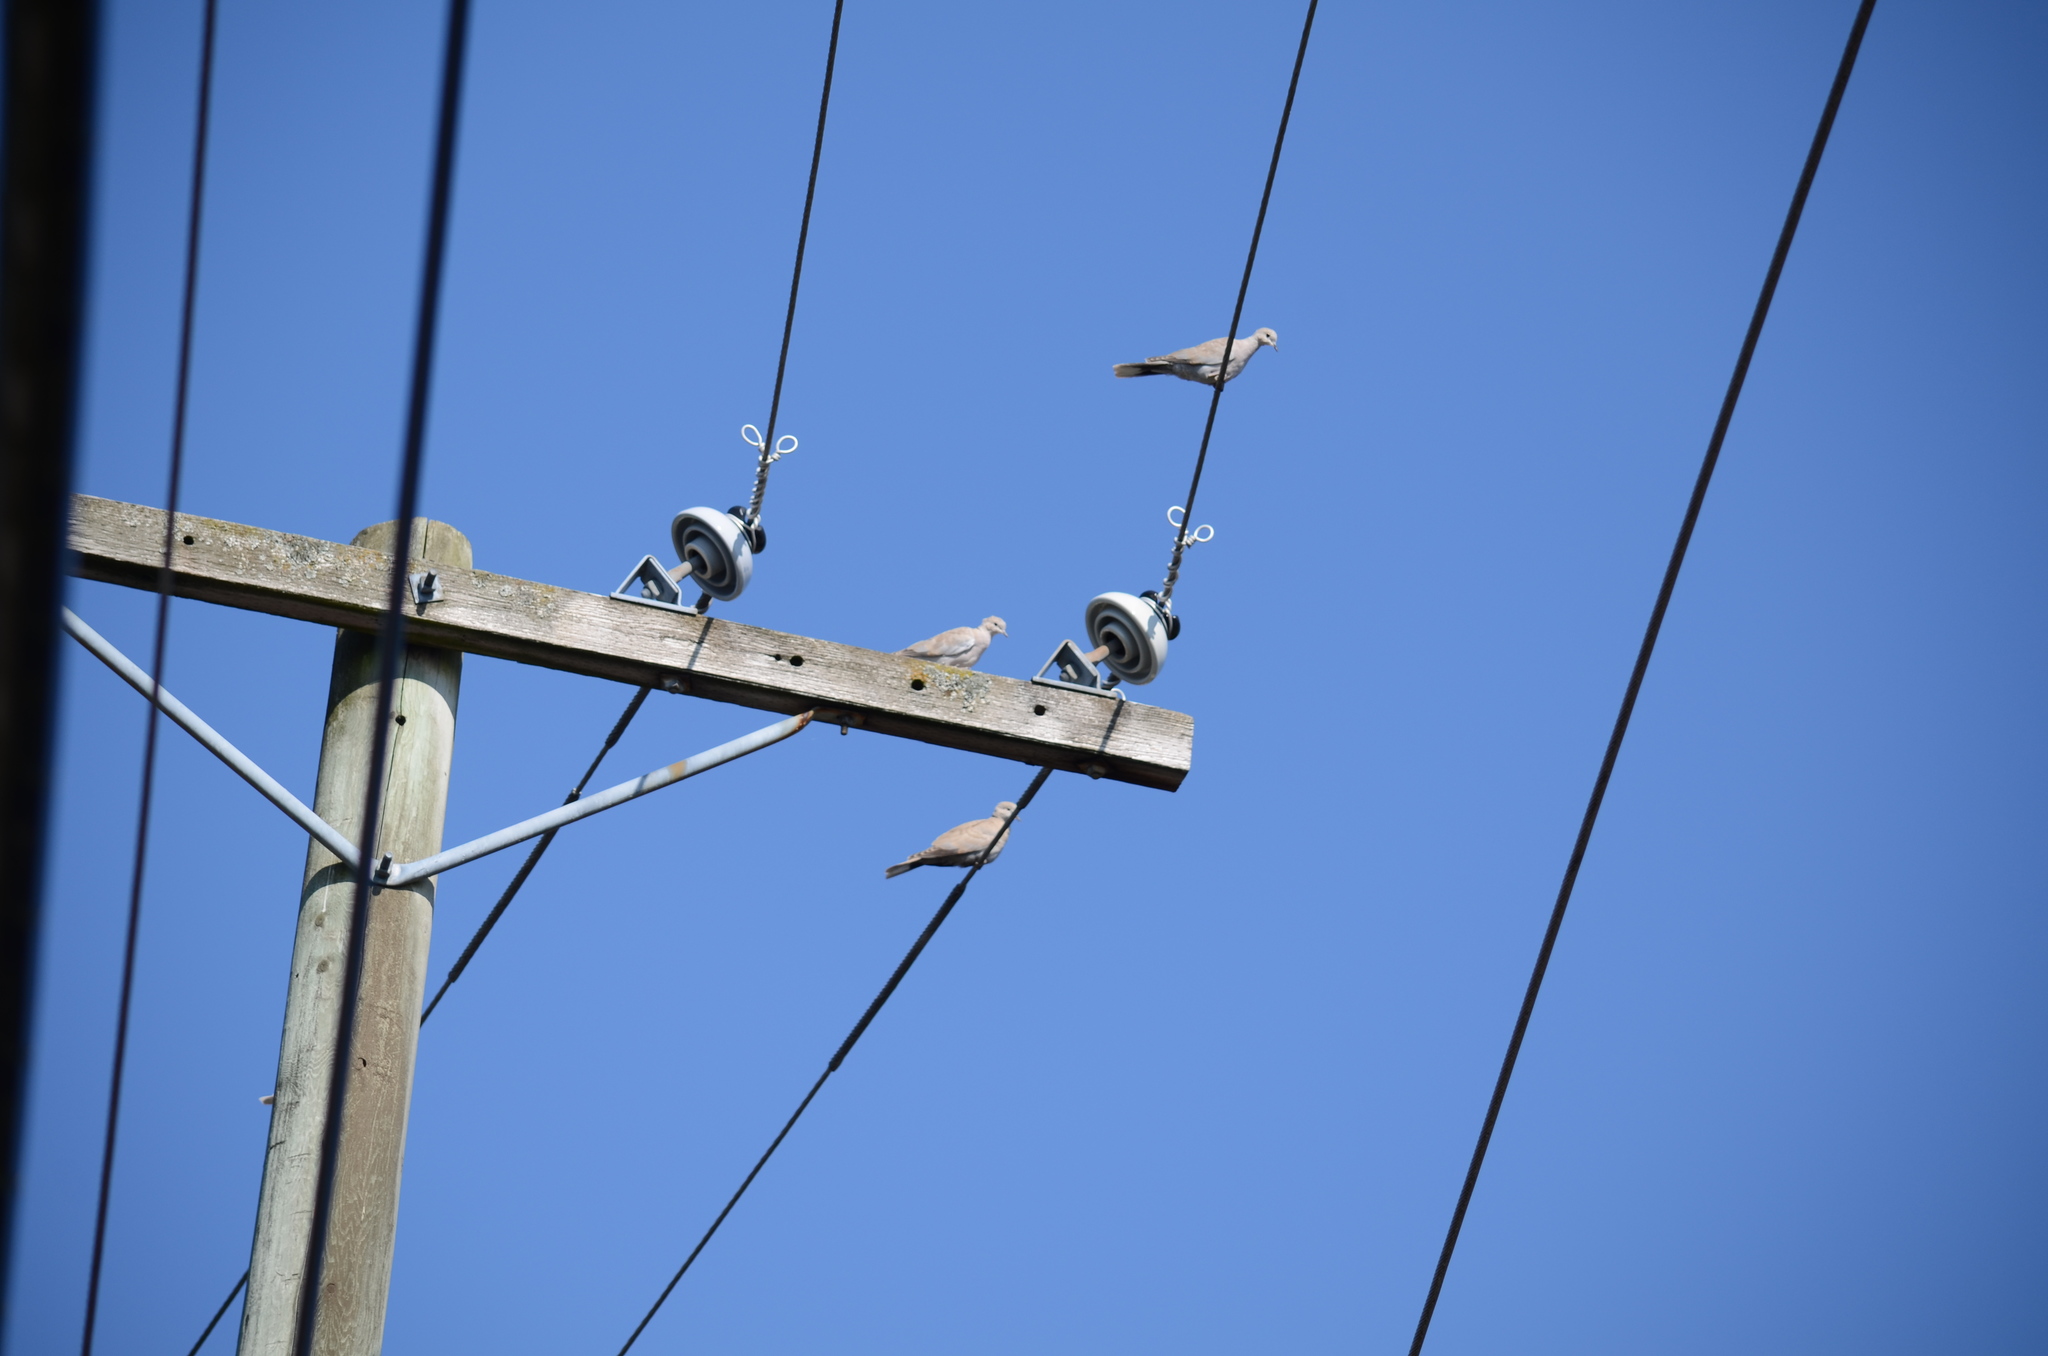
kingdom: Animalia
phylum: Chordata
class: Aves
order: Columbiformes
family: Columbidae
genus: Streptopelia
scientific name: Streptopelia decaocto
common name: Eurasian collared dove
